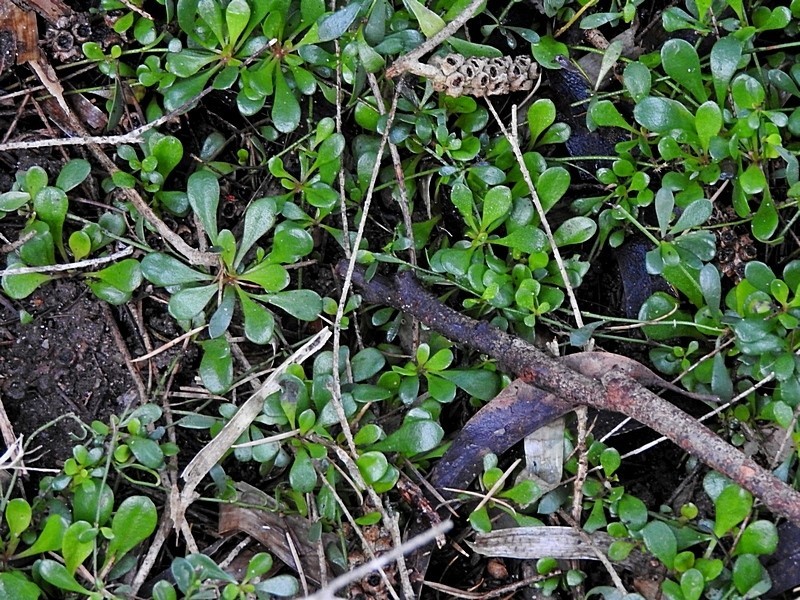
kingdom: Plantae
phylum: Tracheophyta
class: Magnoliopsida
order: Ericales
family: Primulaceae
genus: Samolus
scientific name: Samolus repens
